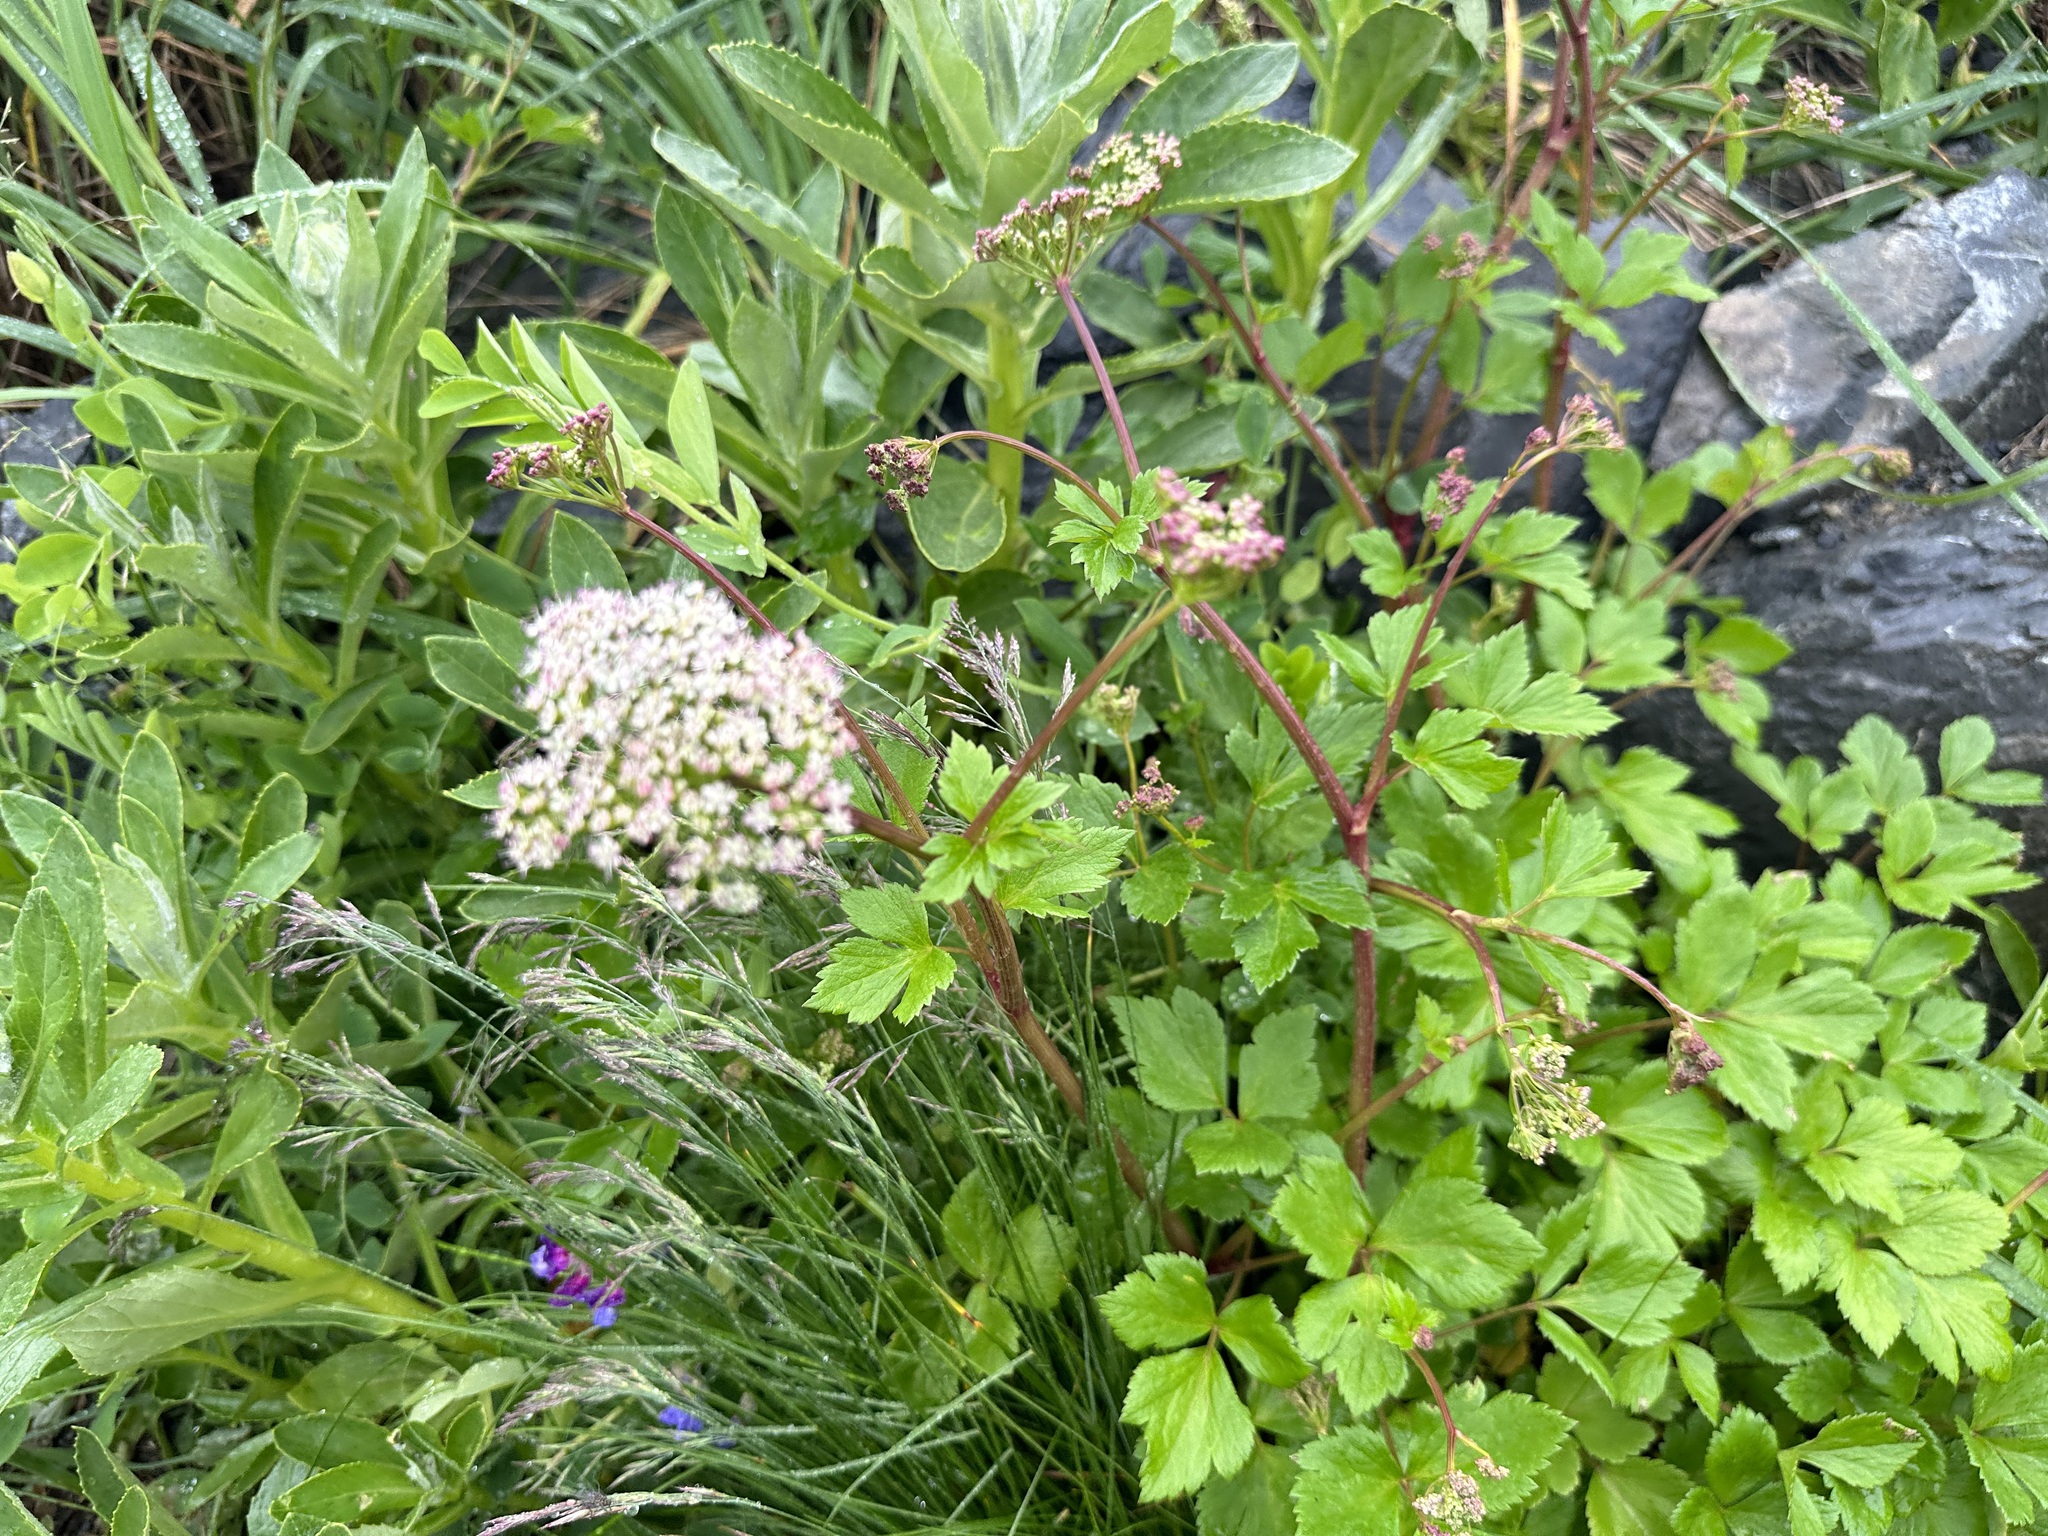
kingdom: Plantae
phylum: Tracheophyta
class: Magnoliopsida
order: Apiales
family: Apiaceae
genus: Ligusticum
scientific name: Ligusticum scothicum
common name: Beach lovage
